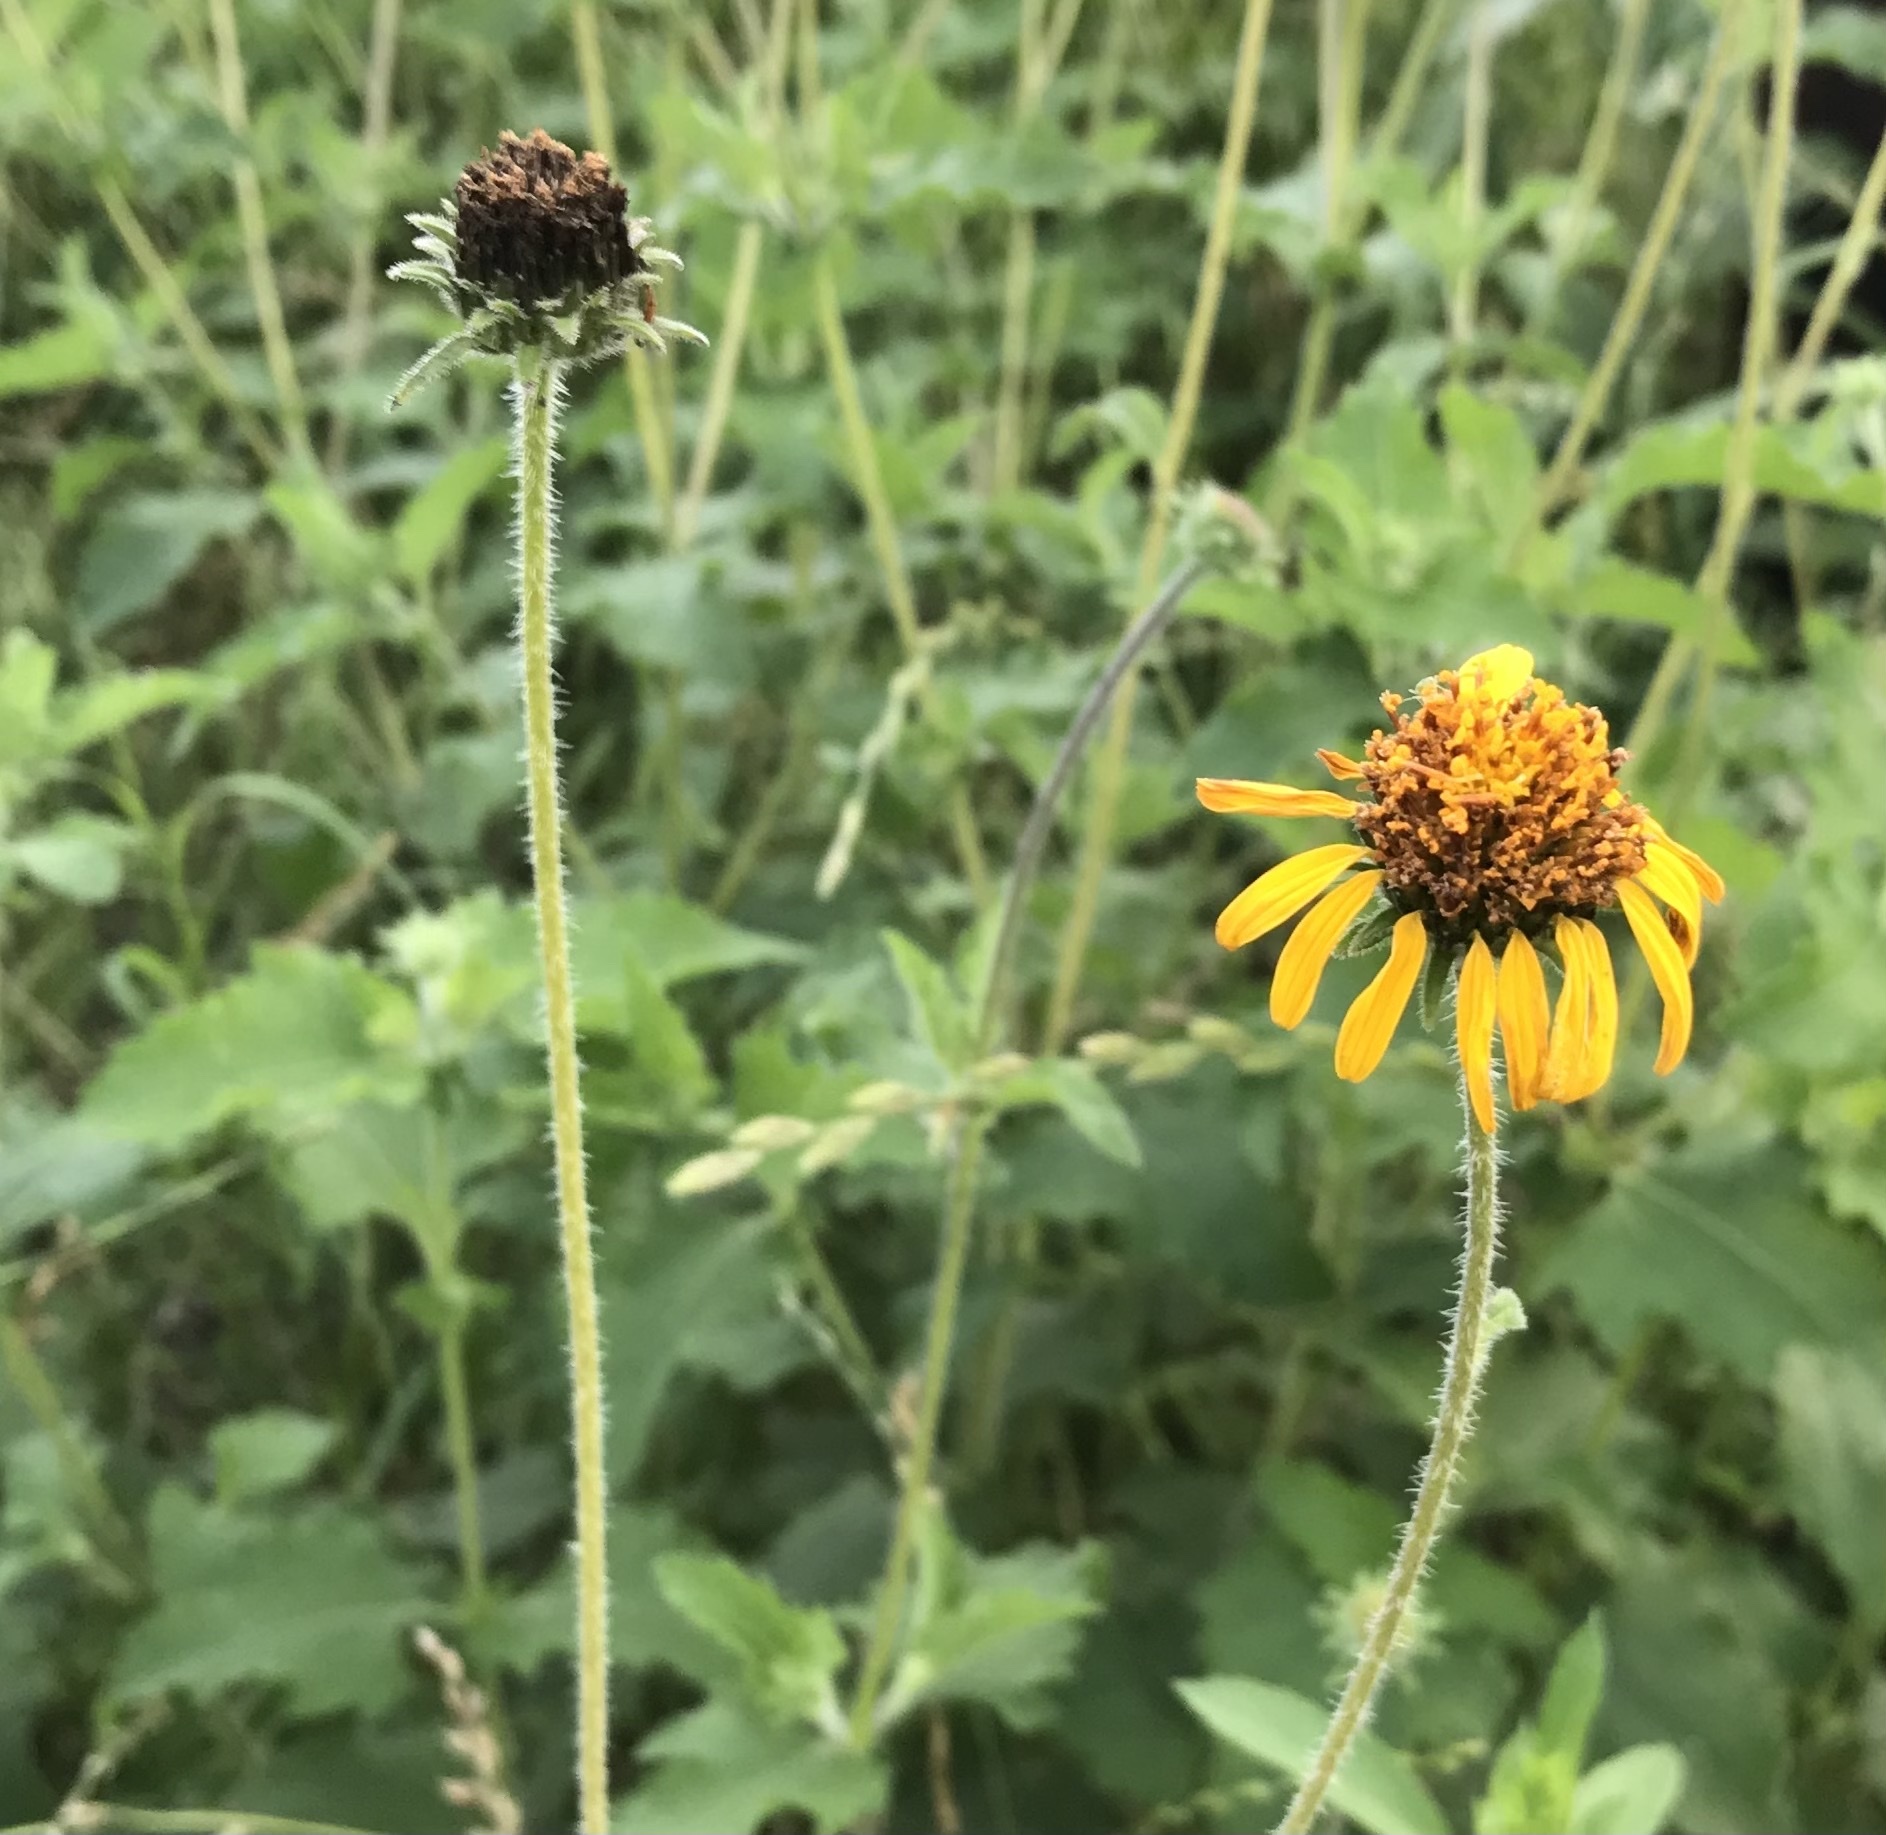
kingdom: Plantae
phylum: Tracheophyta
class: Magnoliopsida
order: Asterales
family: Asteraceae
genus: Simsia
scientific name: Simsia calva
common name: Awnless bush-sunflower
